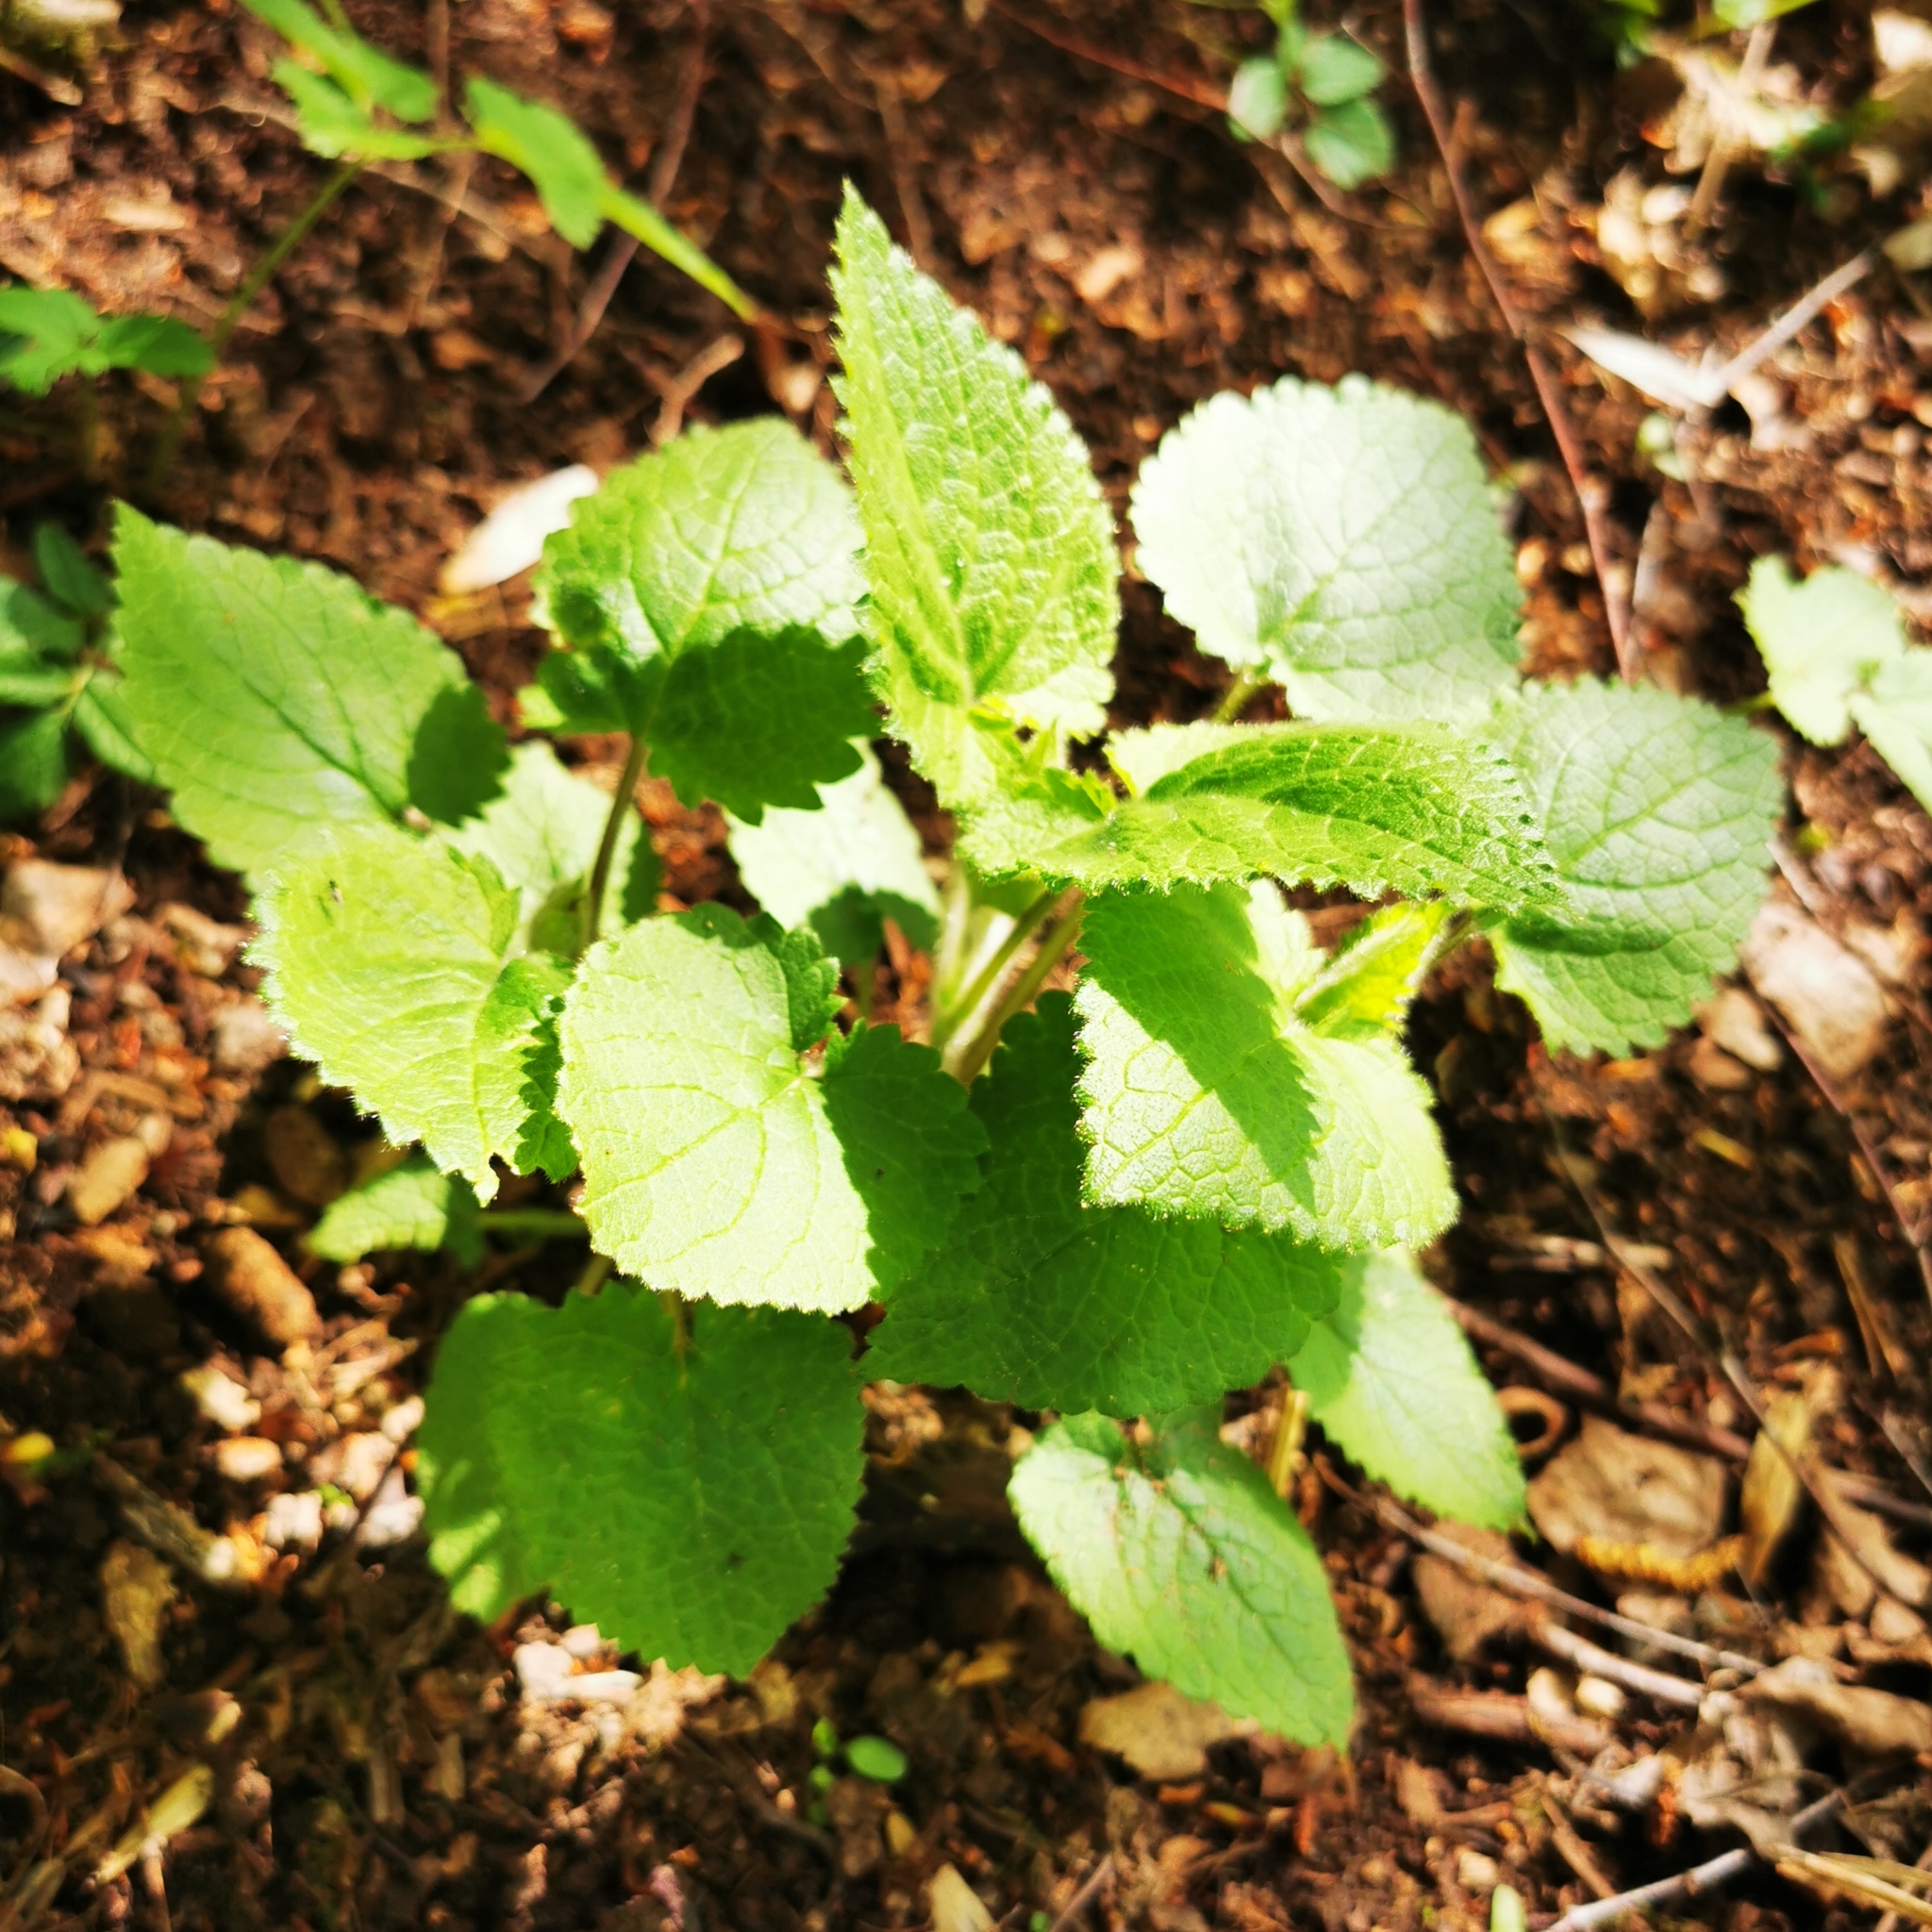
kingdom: Plantae
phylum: Tracheophyta
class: Magnoliopsida
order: Lamiales
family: Lamiaceae
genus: Stachys
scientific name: Stachys sylvatica
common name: Hedge woundwort
